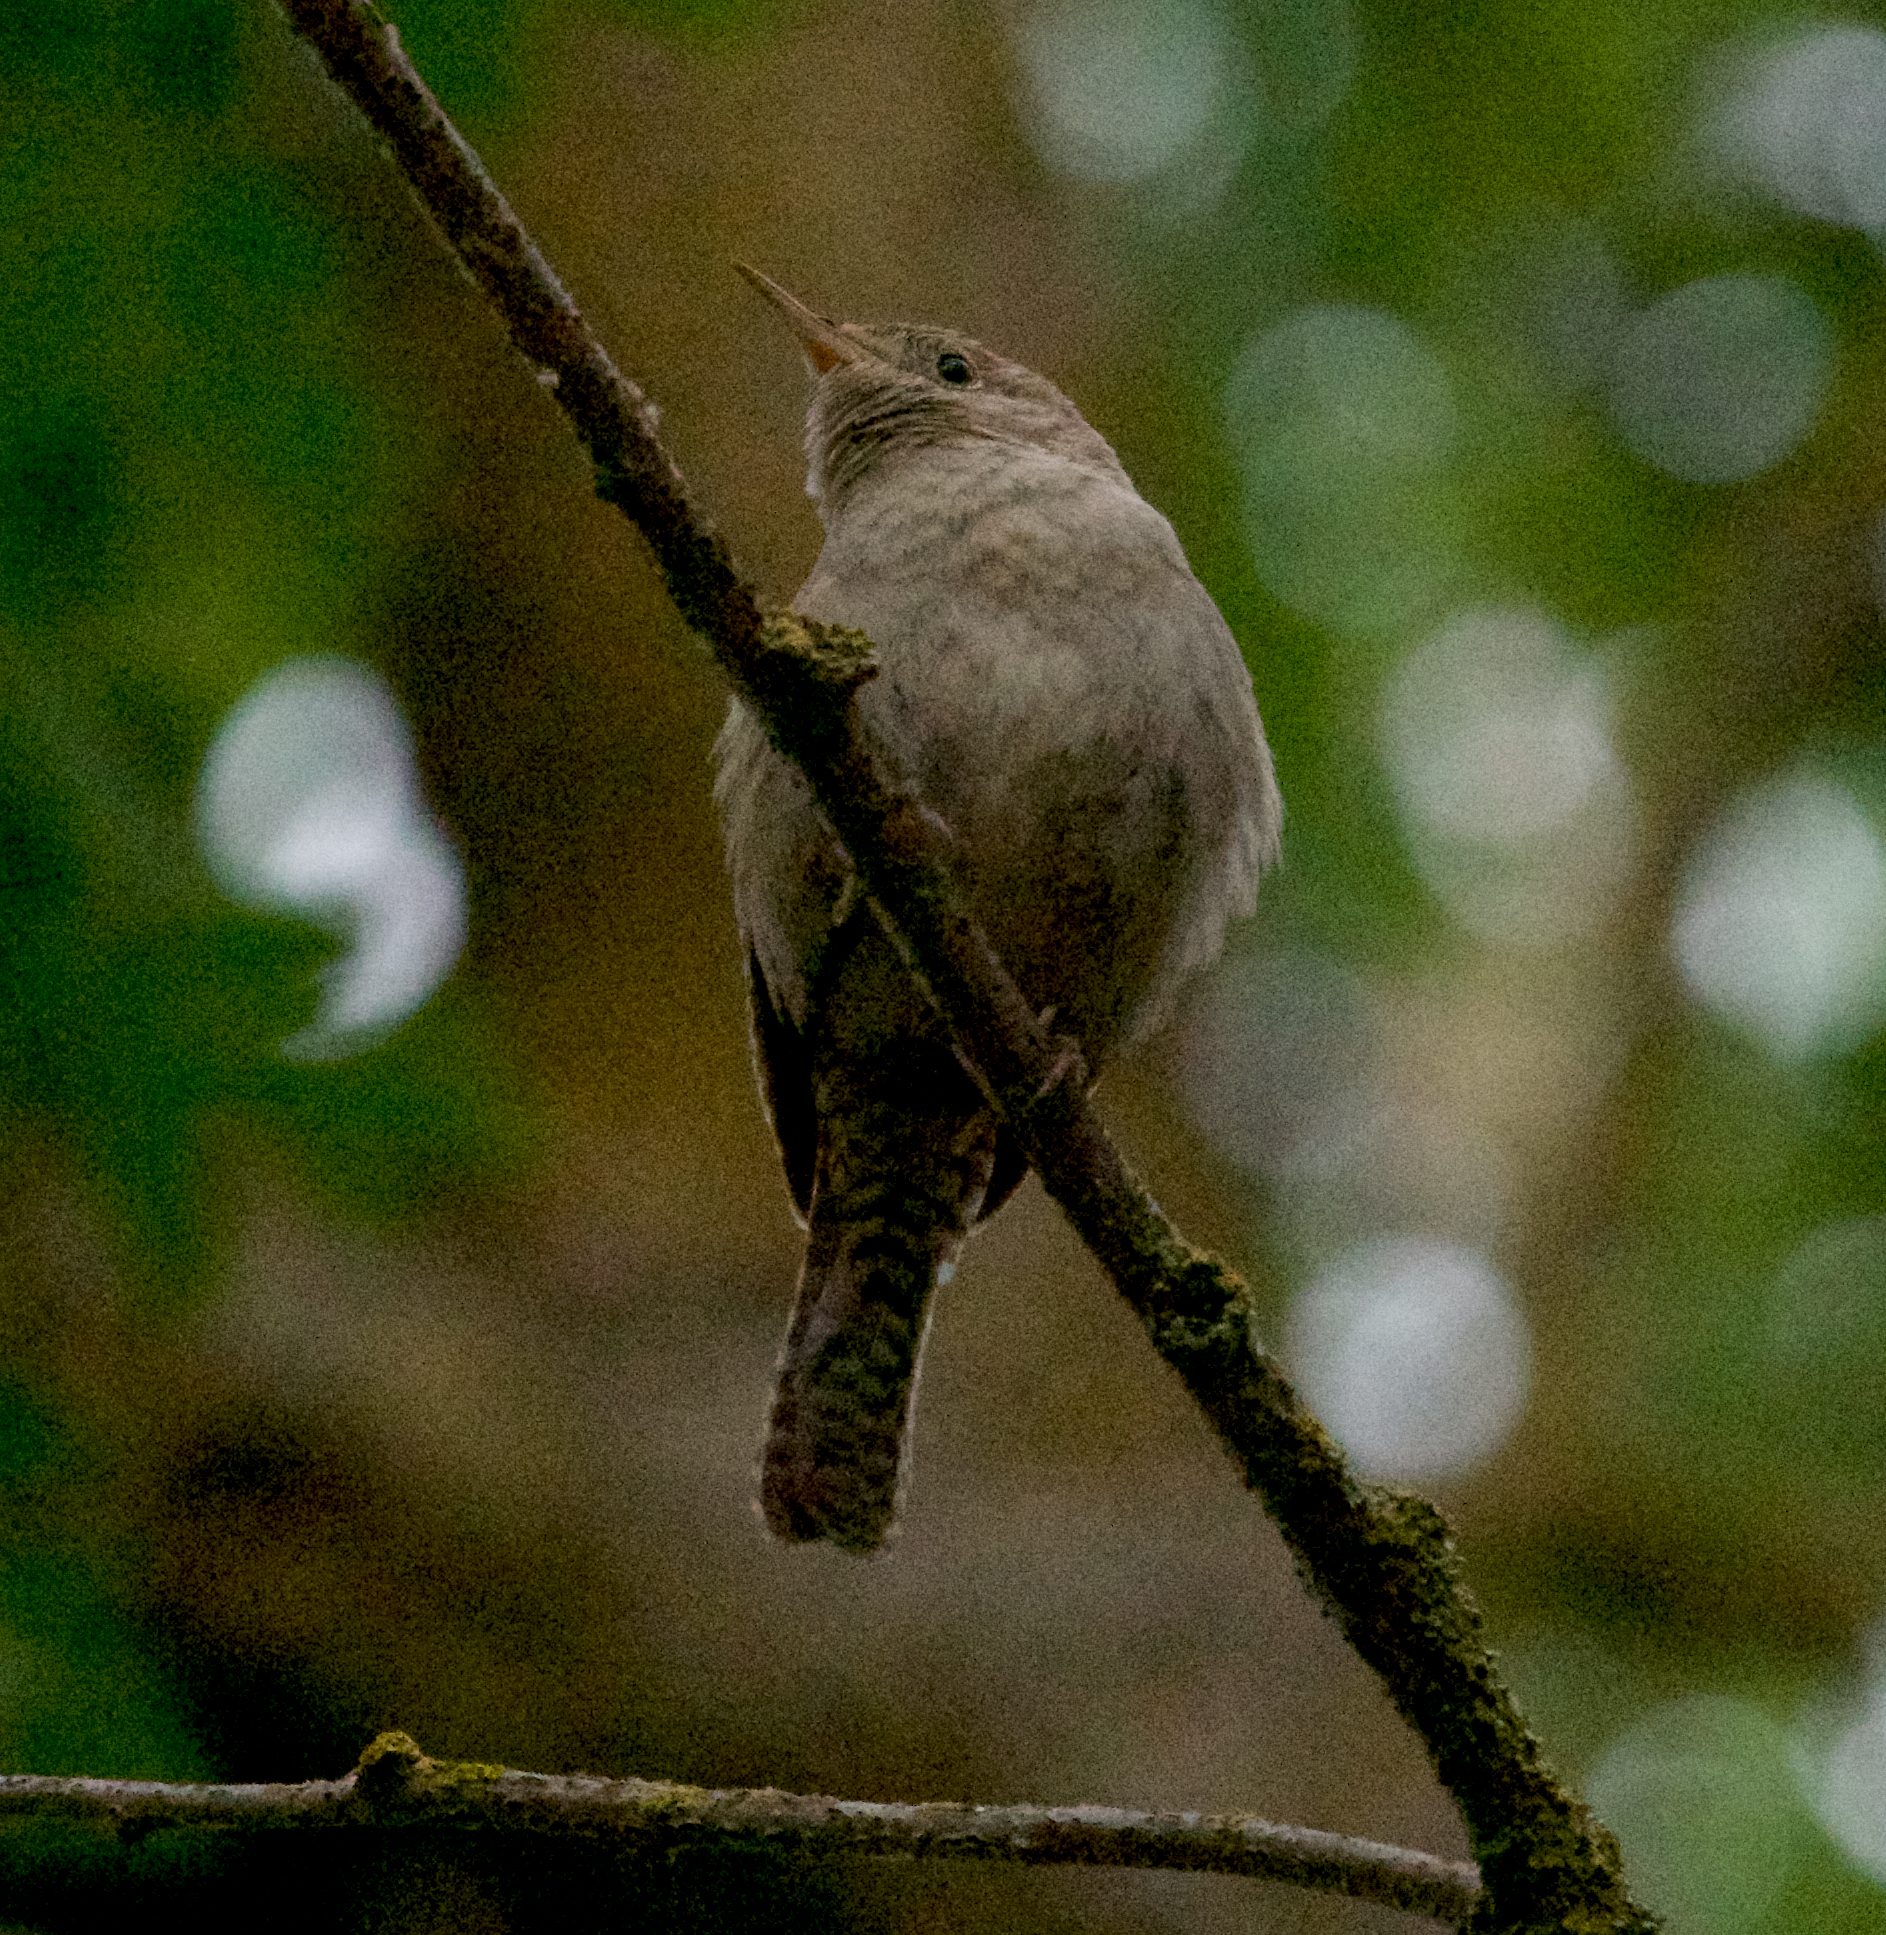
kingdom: Animalia
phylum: Chordata
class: Aves
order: Passeriformes
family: Troglodytidae
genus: Troglodytes
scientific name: Troglodytes aedon
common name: House wren
